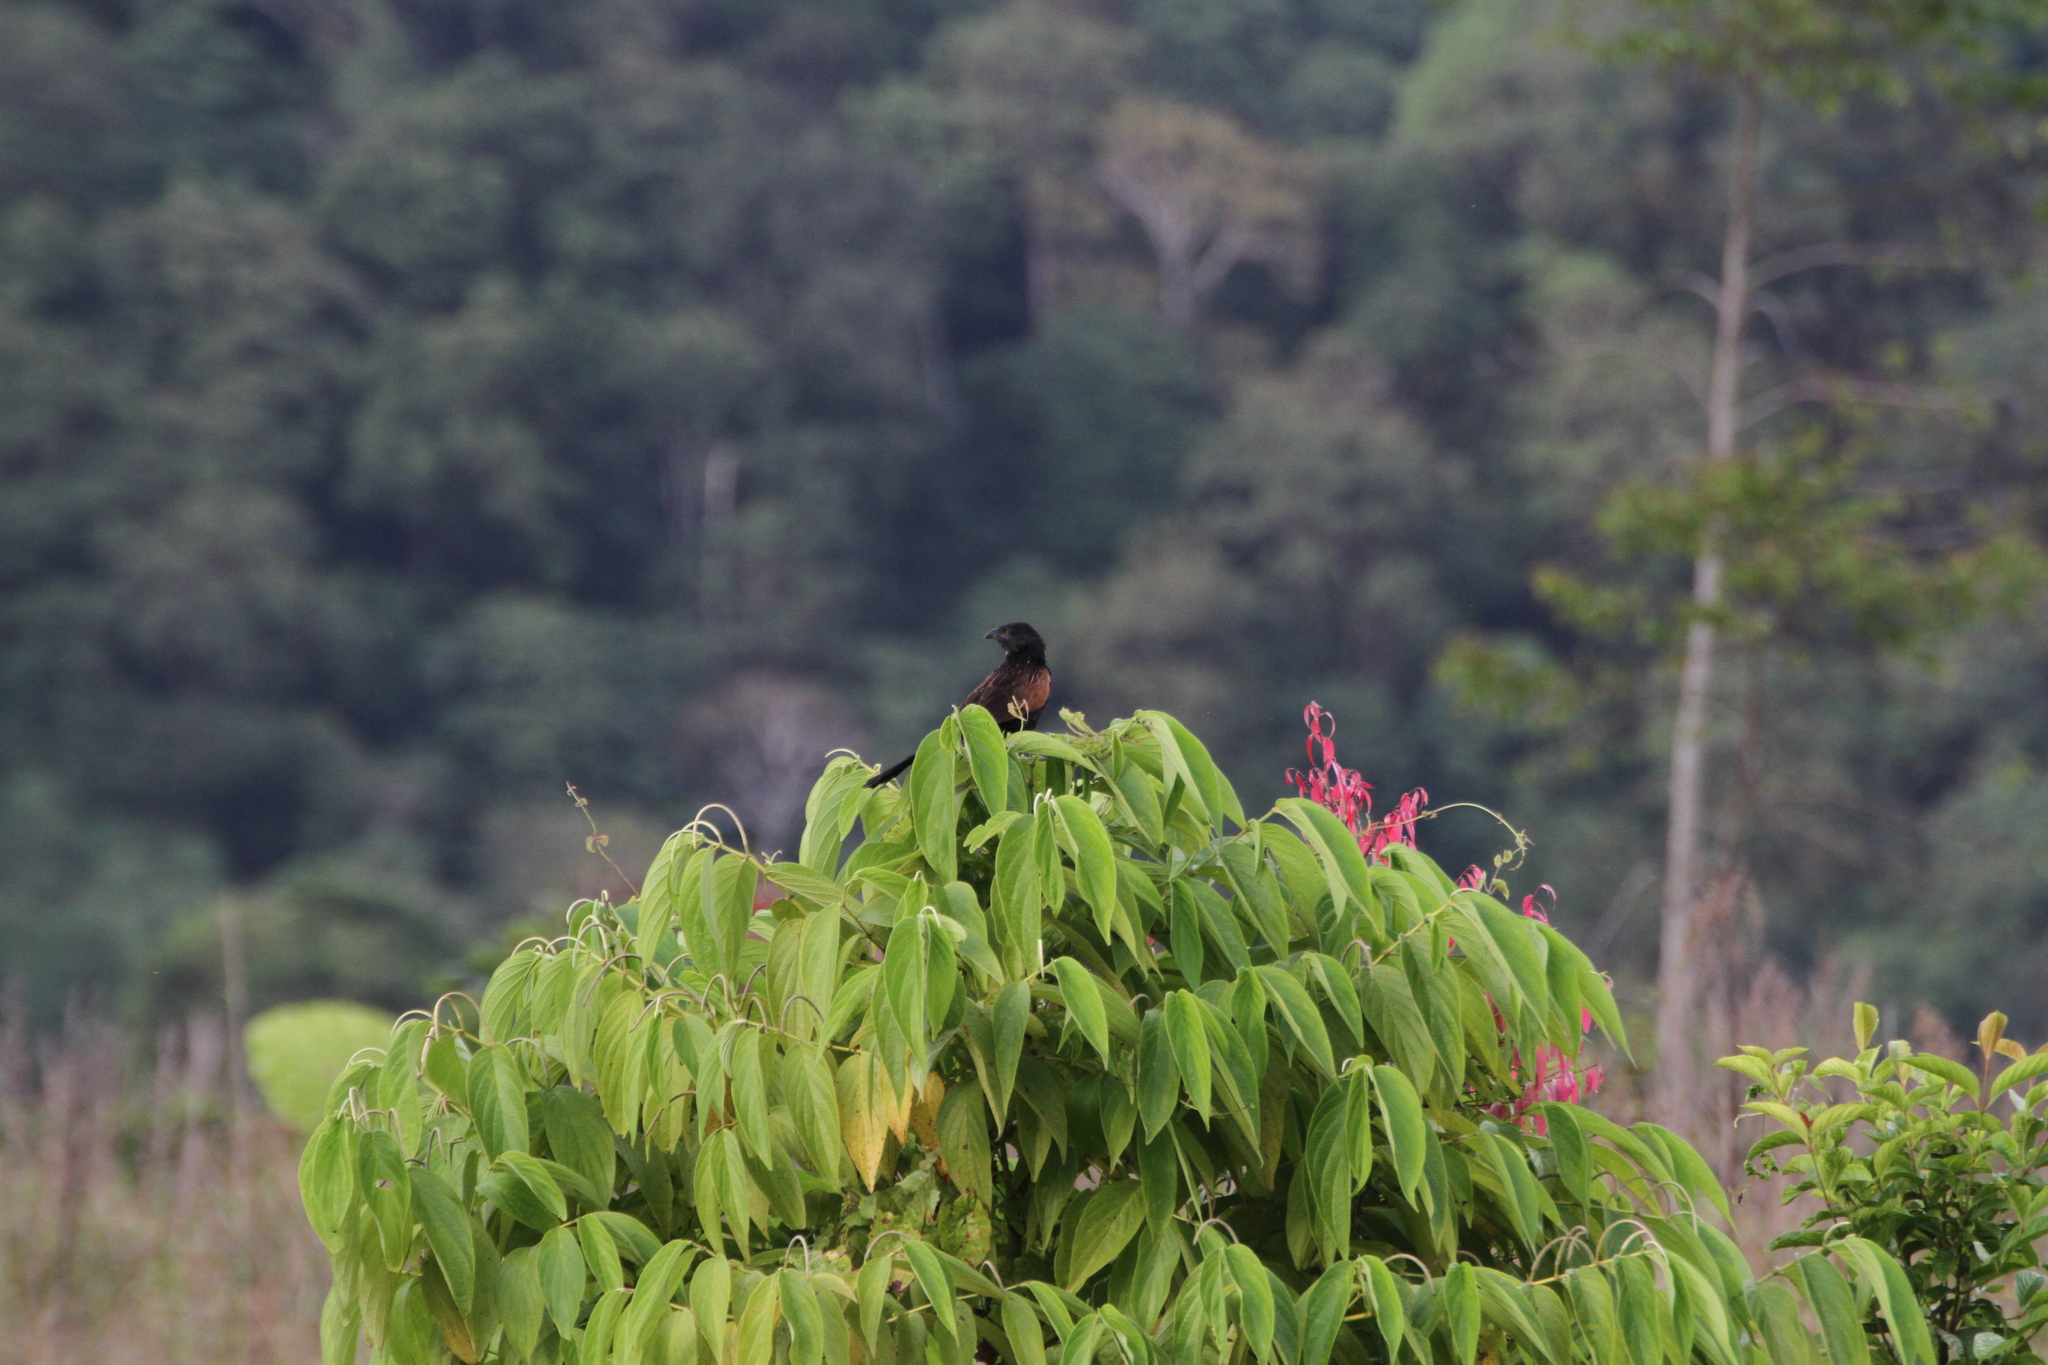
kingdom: Animalia
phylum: Chordata
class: Aves
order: Cuculiformes
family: Cuculidae
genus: Centropus
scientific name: Centropus bengalensis
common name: Lesser coucal
